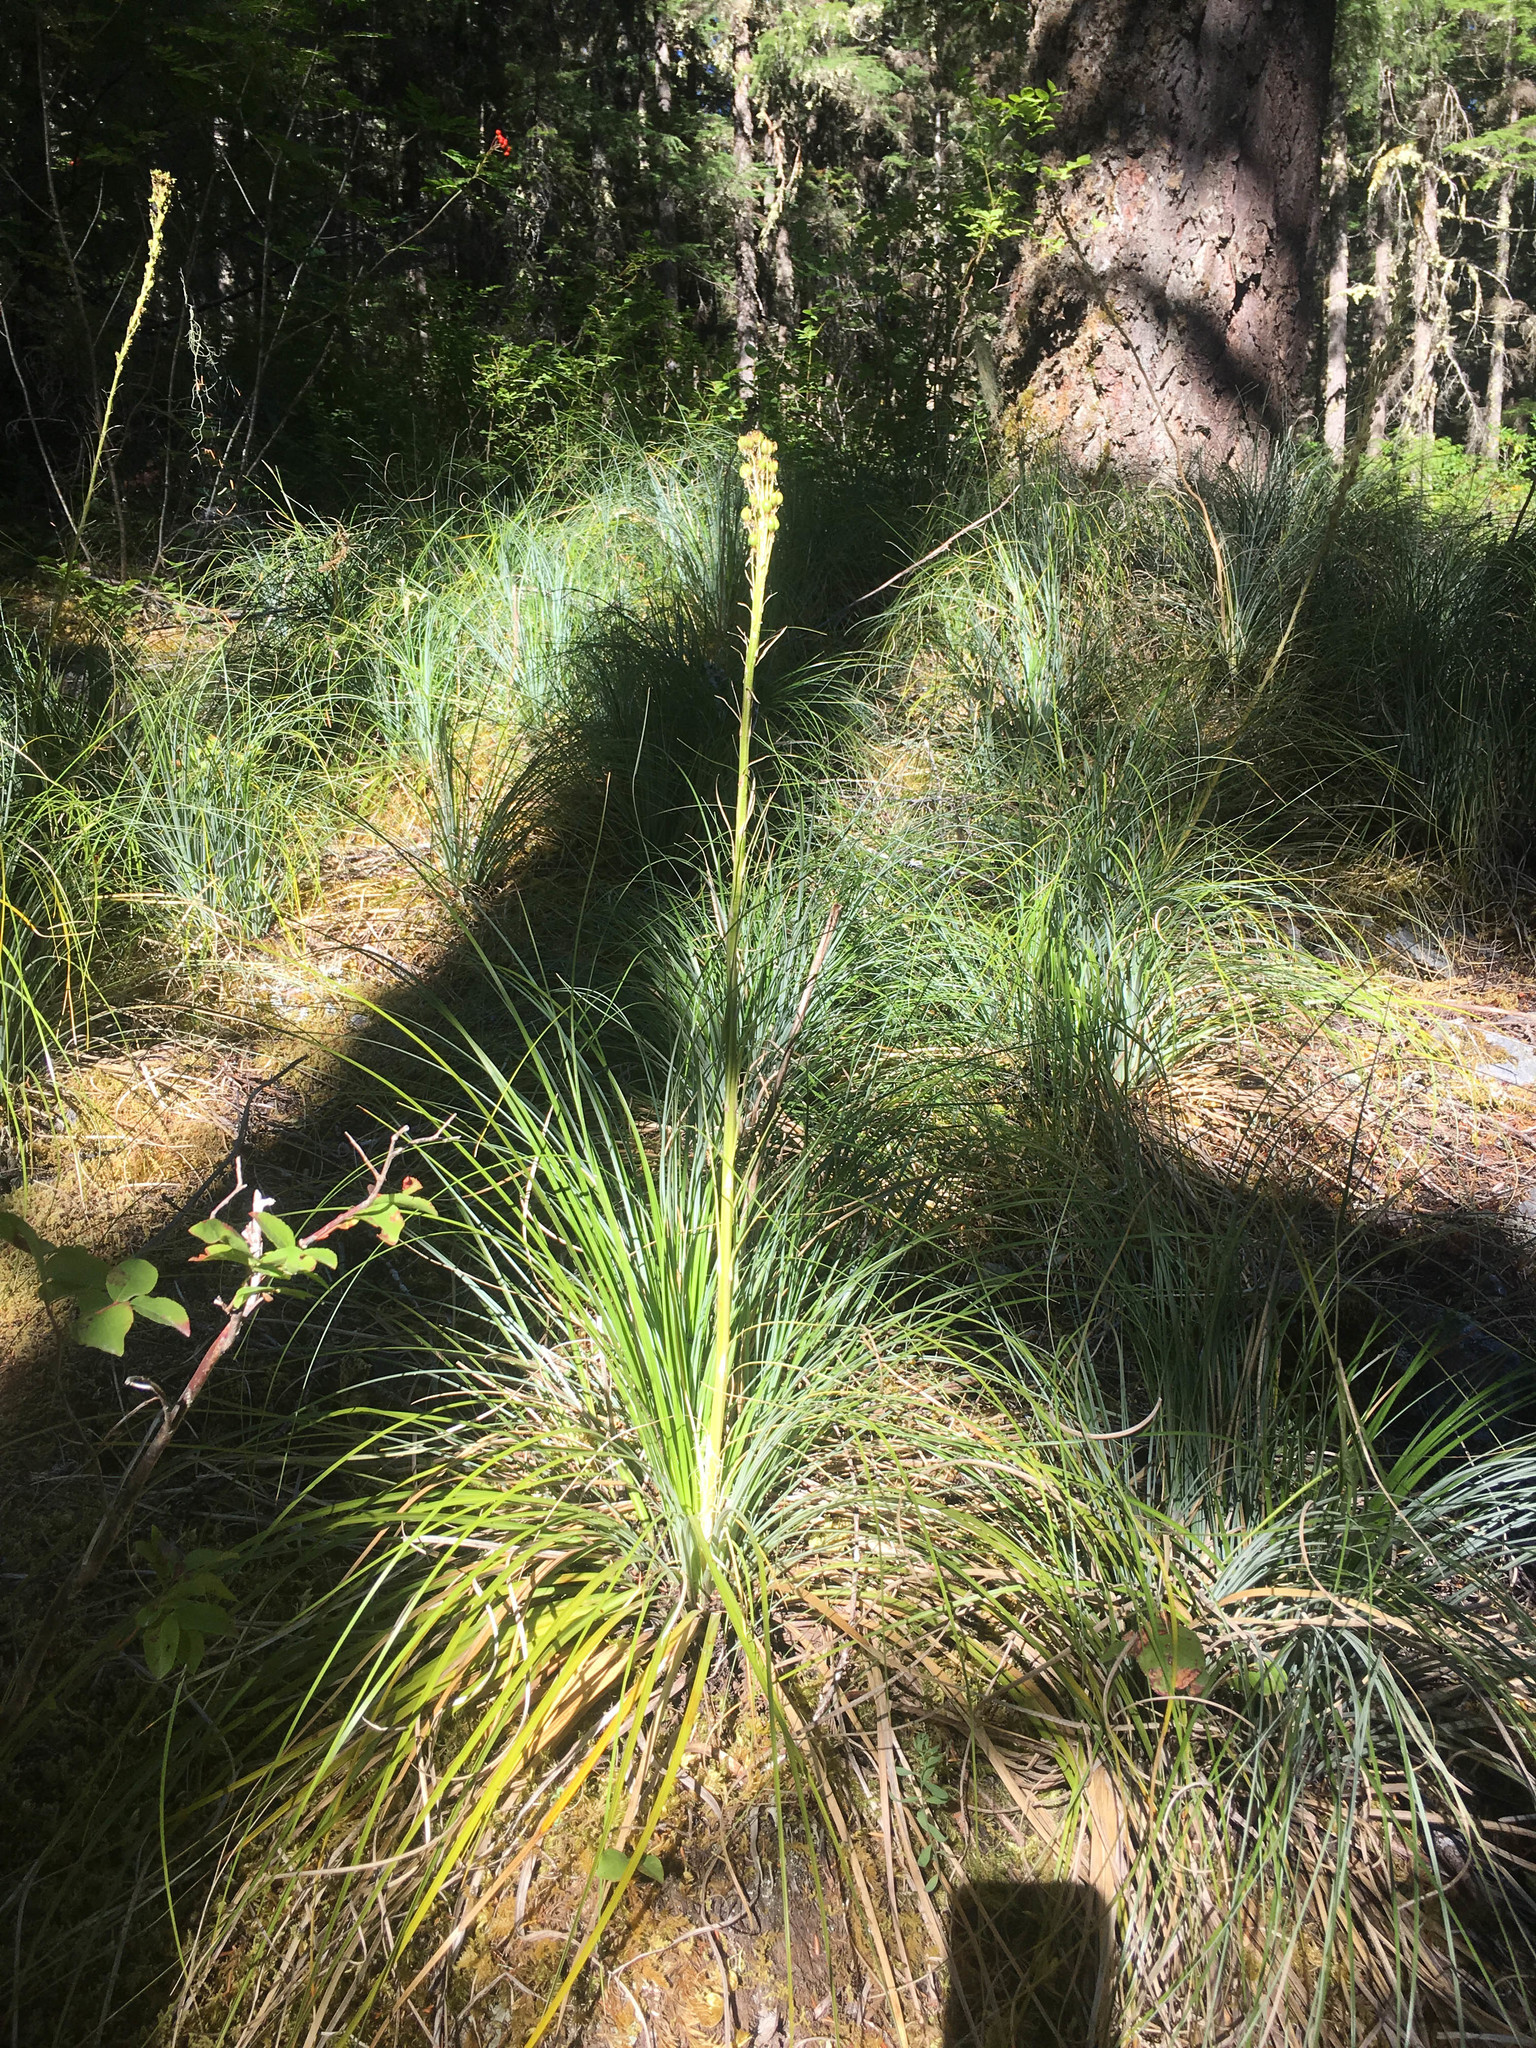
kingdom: Plantae
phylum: Tracheophyta
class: Liliopsida
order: Liliales
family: Melanthiaceae
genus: Xerophyllum
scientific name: Xerophyllum tenax
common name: Bear-grass
